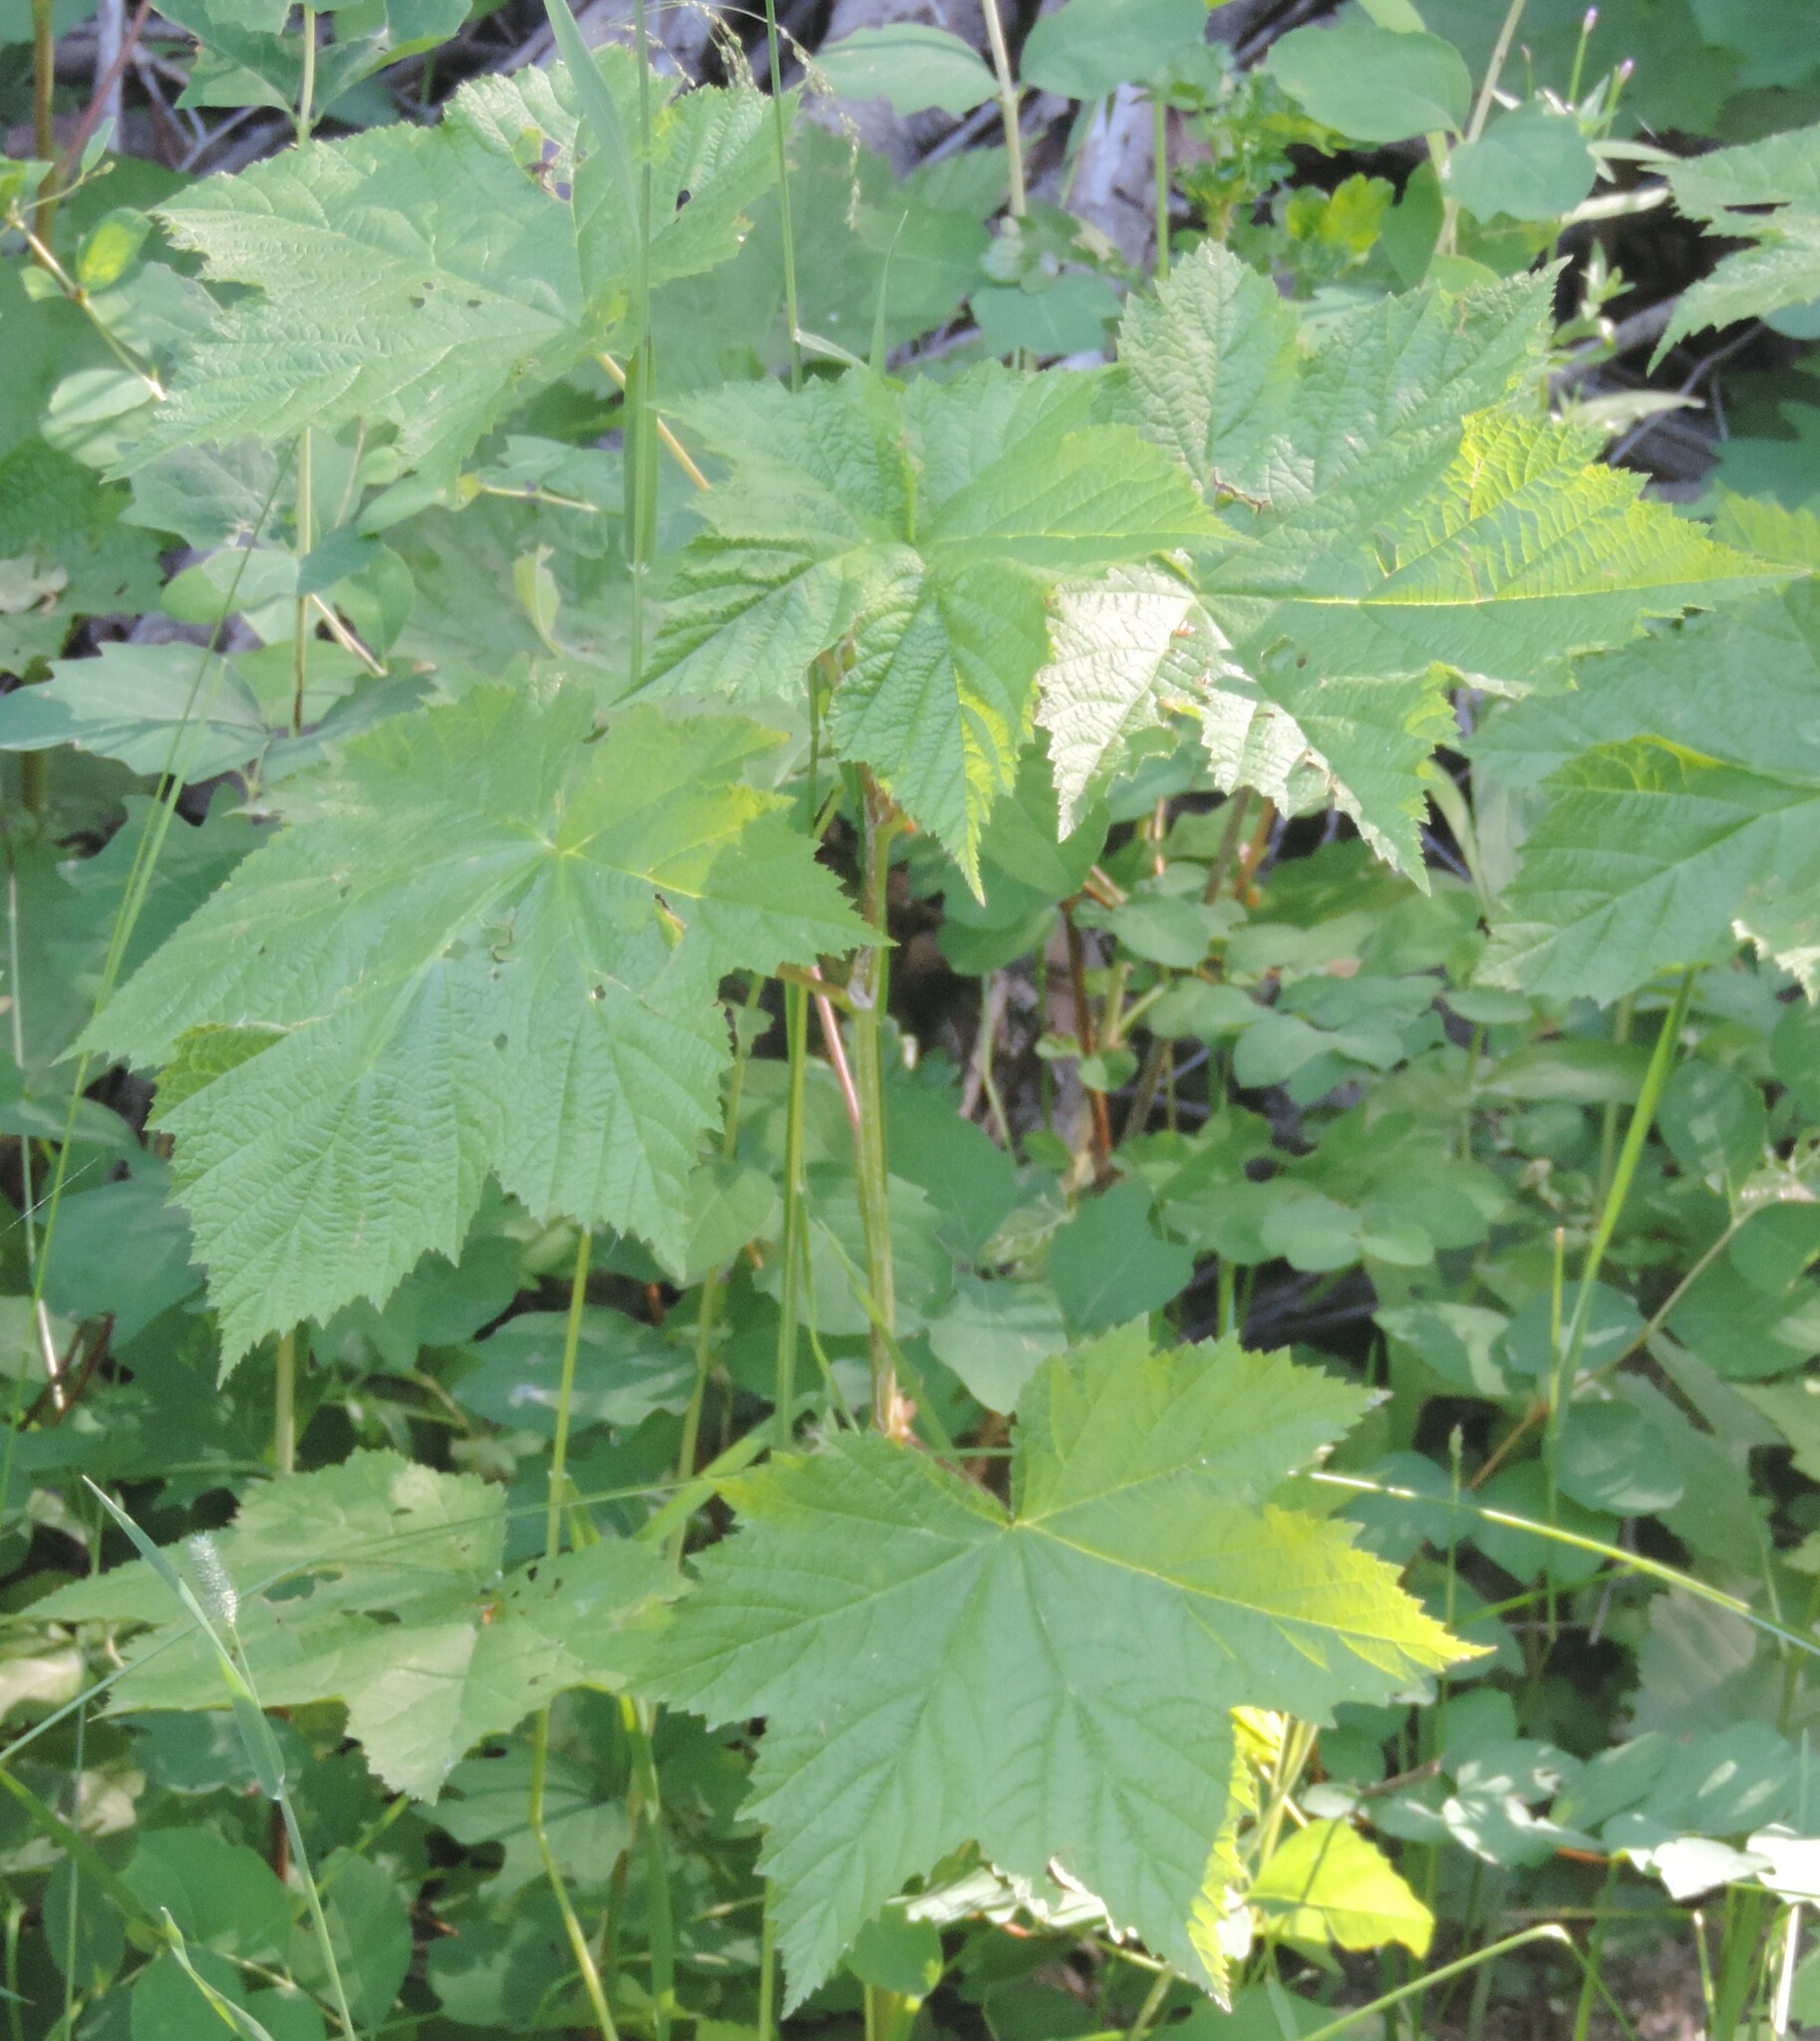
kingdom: Plantae
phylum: Tracheophyta
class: Magnoliopsida
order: Rosales
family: Rosaceae
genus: Rubus
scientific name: Rubus parviflorus
